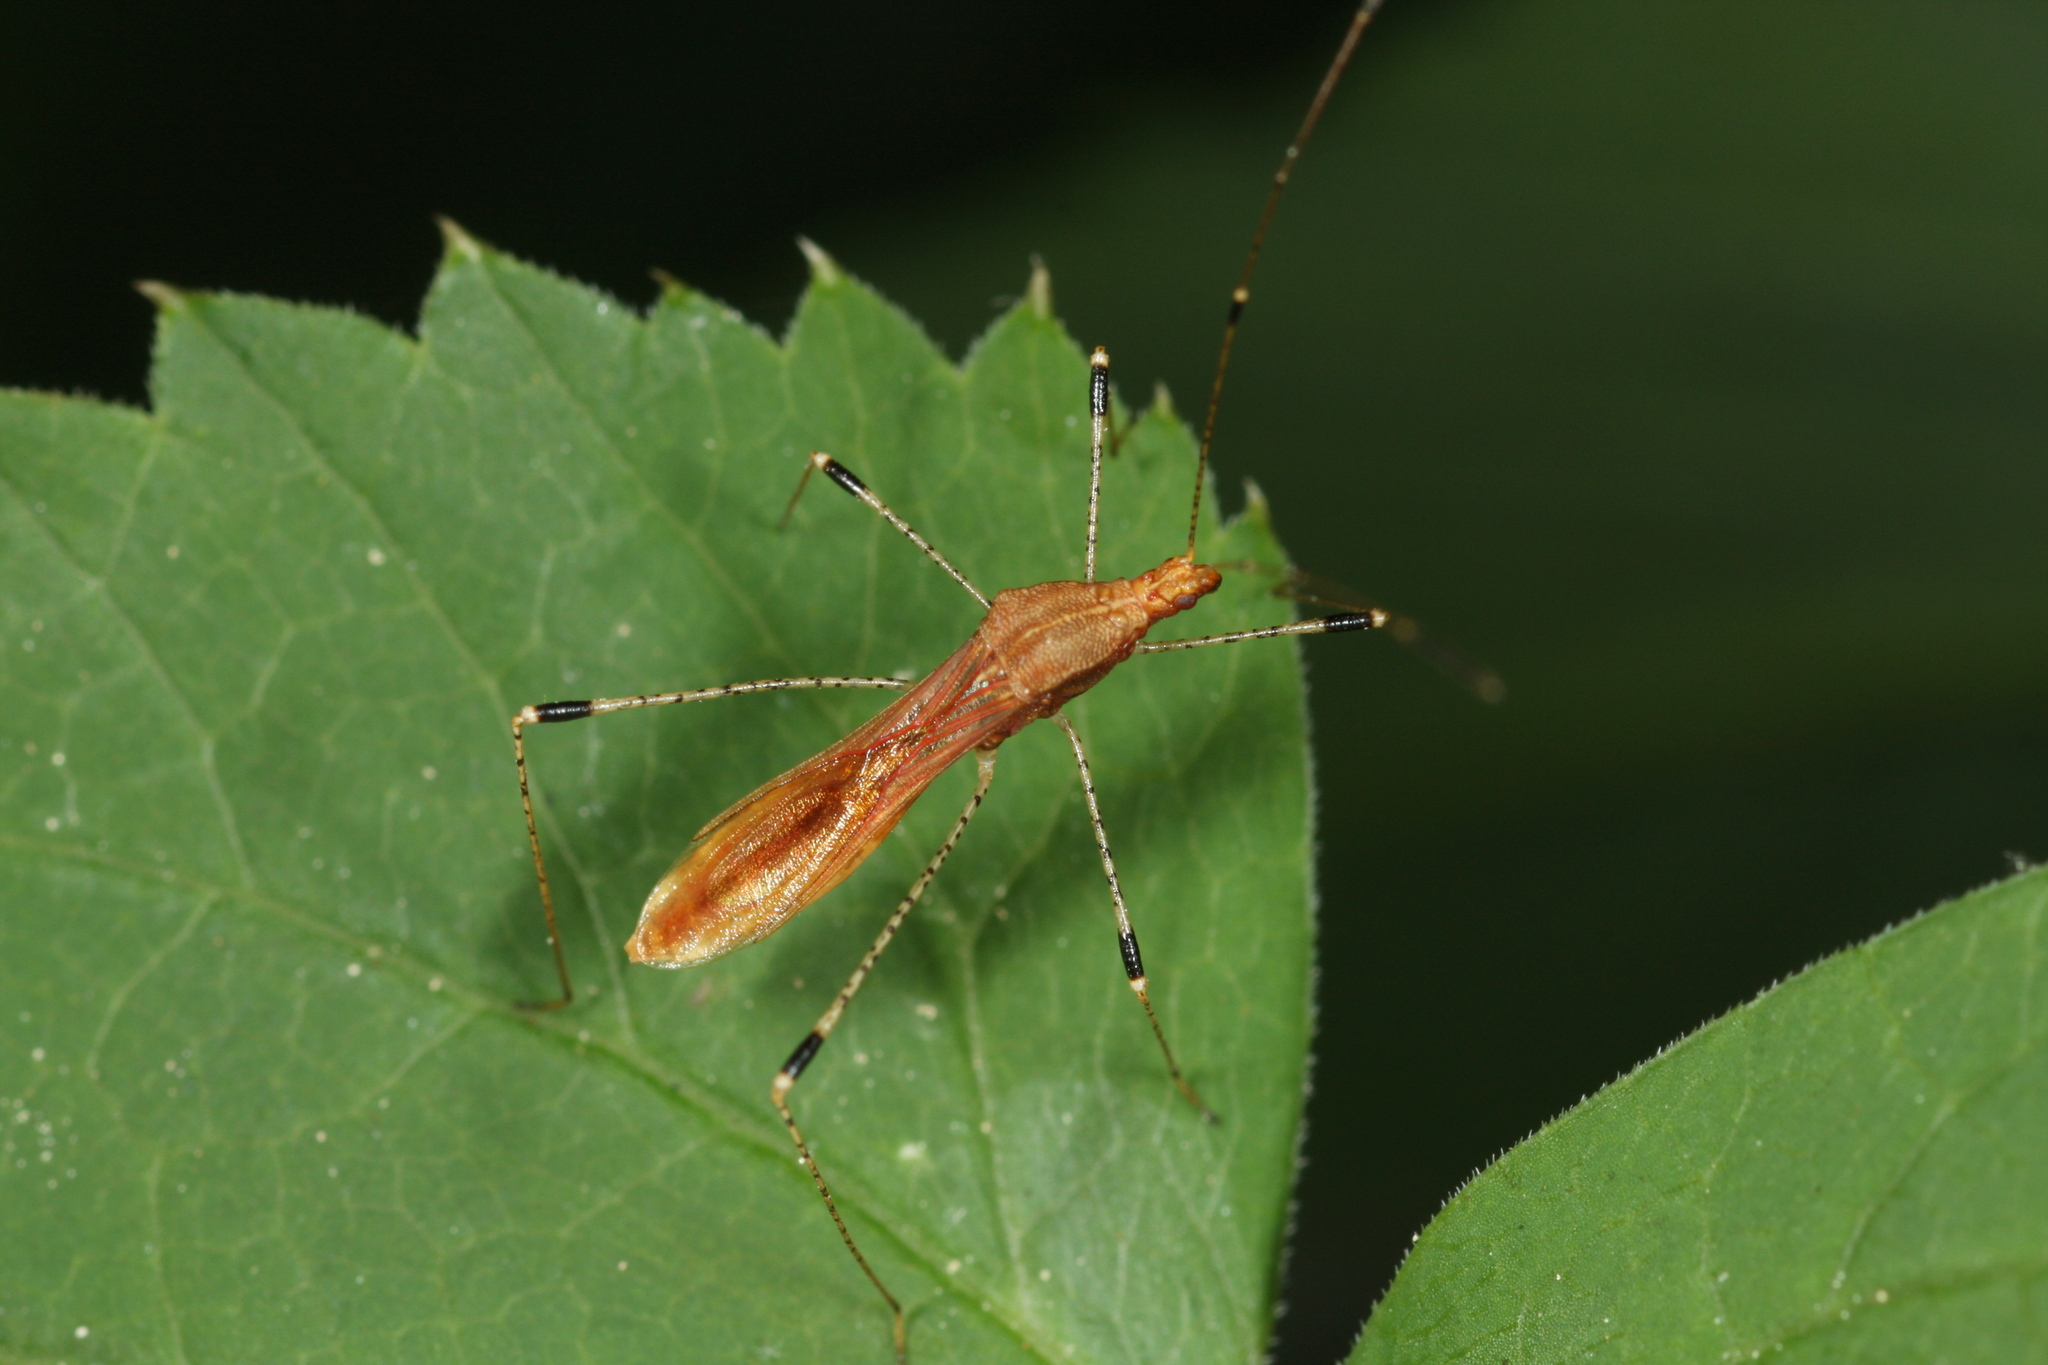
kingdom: Animalia
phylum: Arthropoda
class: Insecta
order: Hemiptera
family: Berytidae
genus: Metatropis
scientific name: Metatropis rufescens
